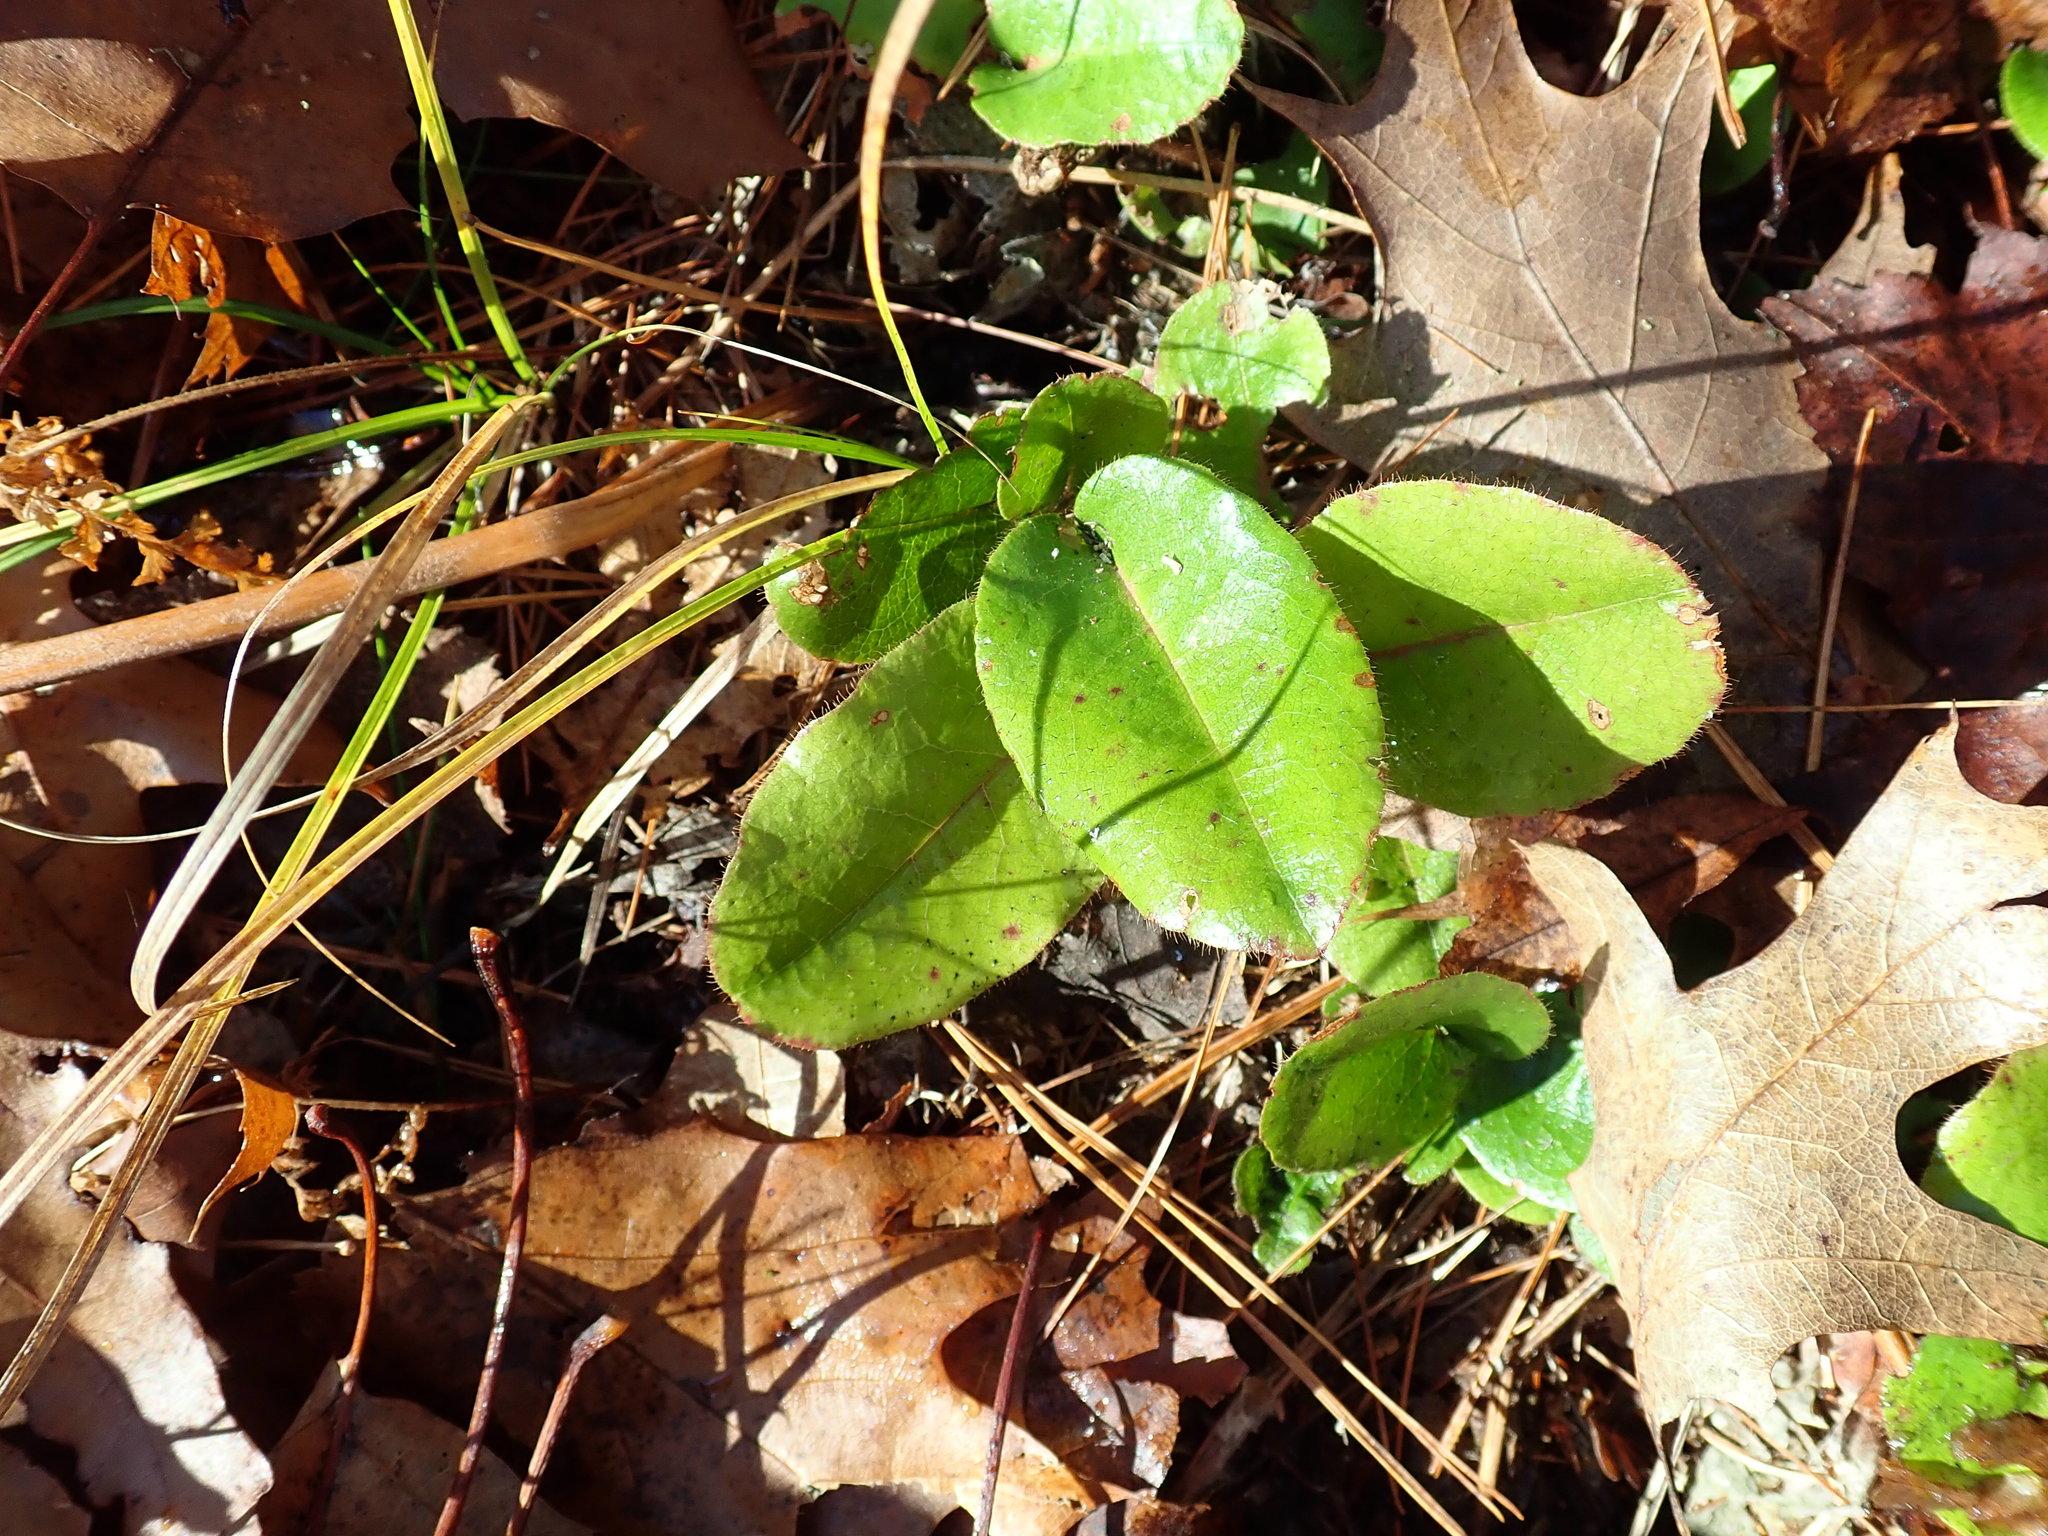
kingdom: Plantae
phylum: Tracheophyta
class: Magnoliopsida
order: Ericales
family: Ericaceae
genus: Epigaea
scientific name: Epigaea repens
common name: Gravelroot
